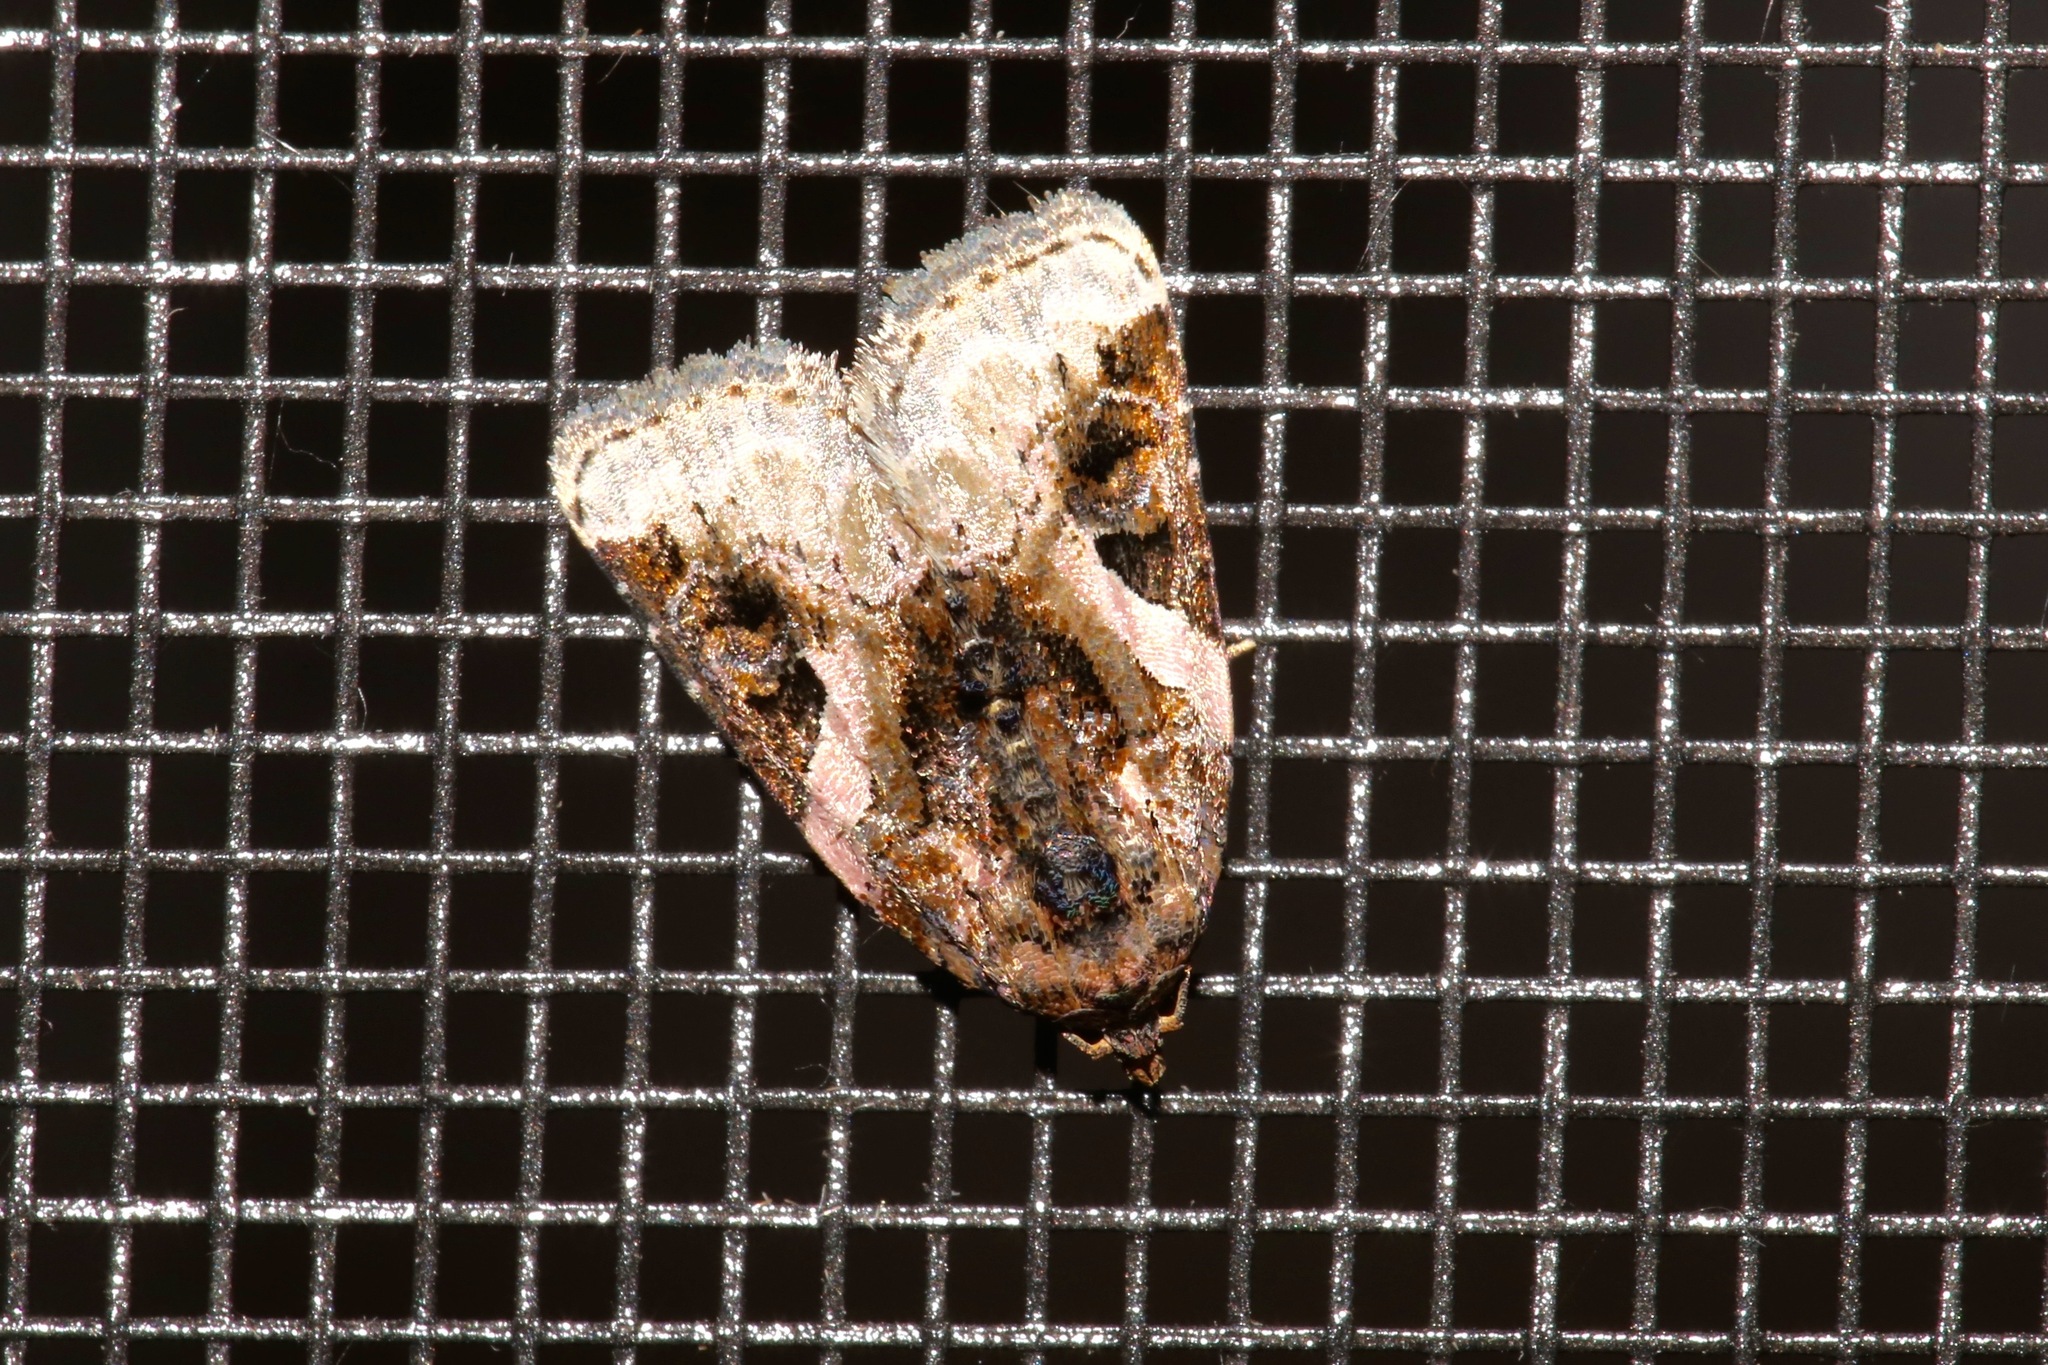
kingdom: Animalia
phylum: Arthropoda
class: Insecta
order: Lepidoptera
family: Noctuidae
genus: Pseudeustrotia
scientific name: Pseudeustrotia carneola
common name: Pink-barred lithacodia moth
